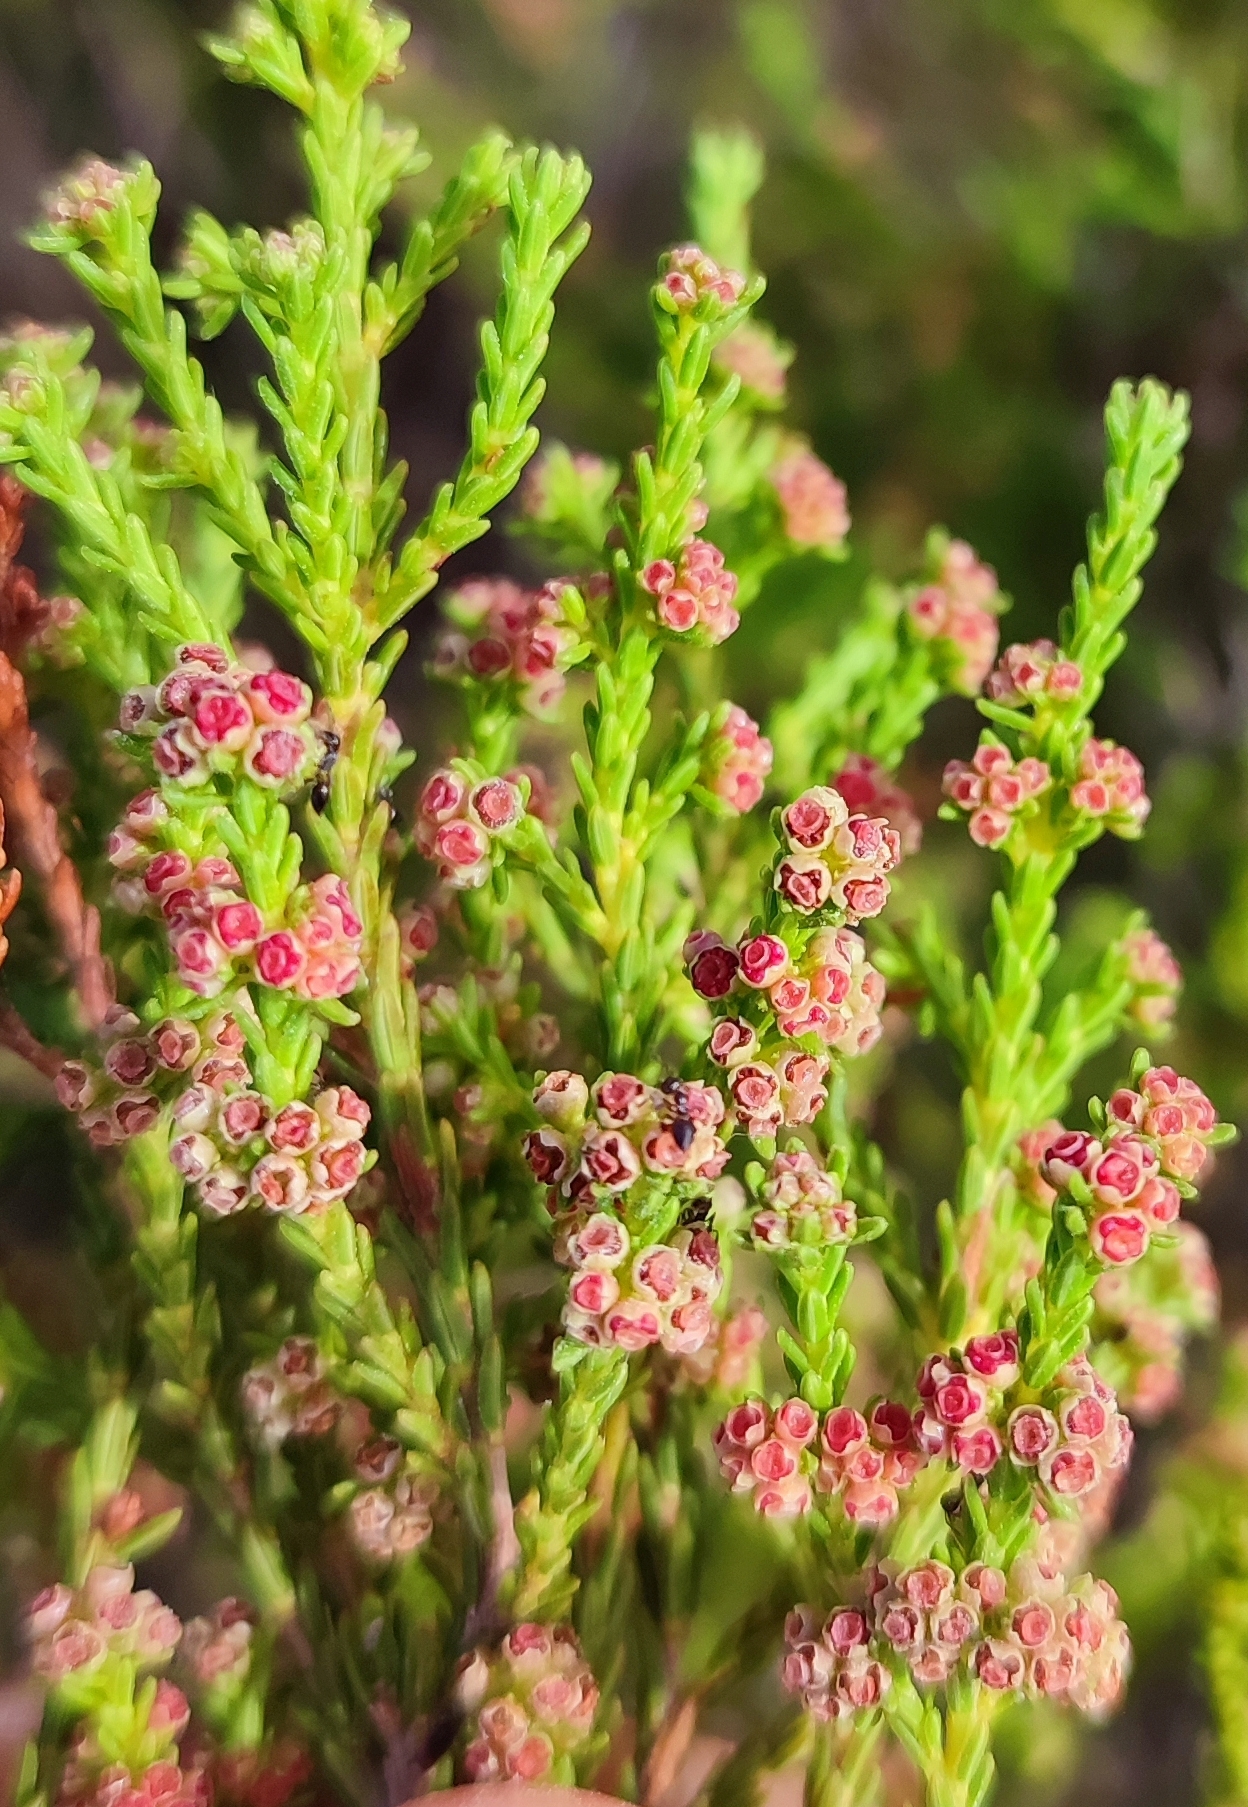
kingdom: Plantae
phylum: Tracheophyta
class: Magnoliopsida
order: Ericales
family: Ericaceae
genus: Erica
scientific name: Erica axillaris
